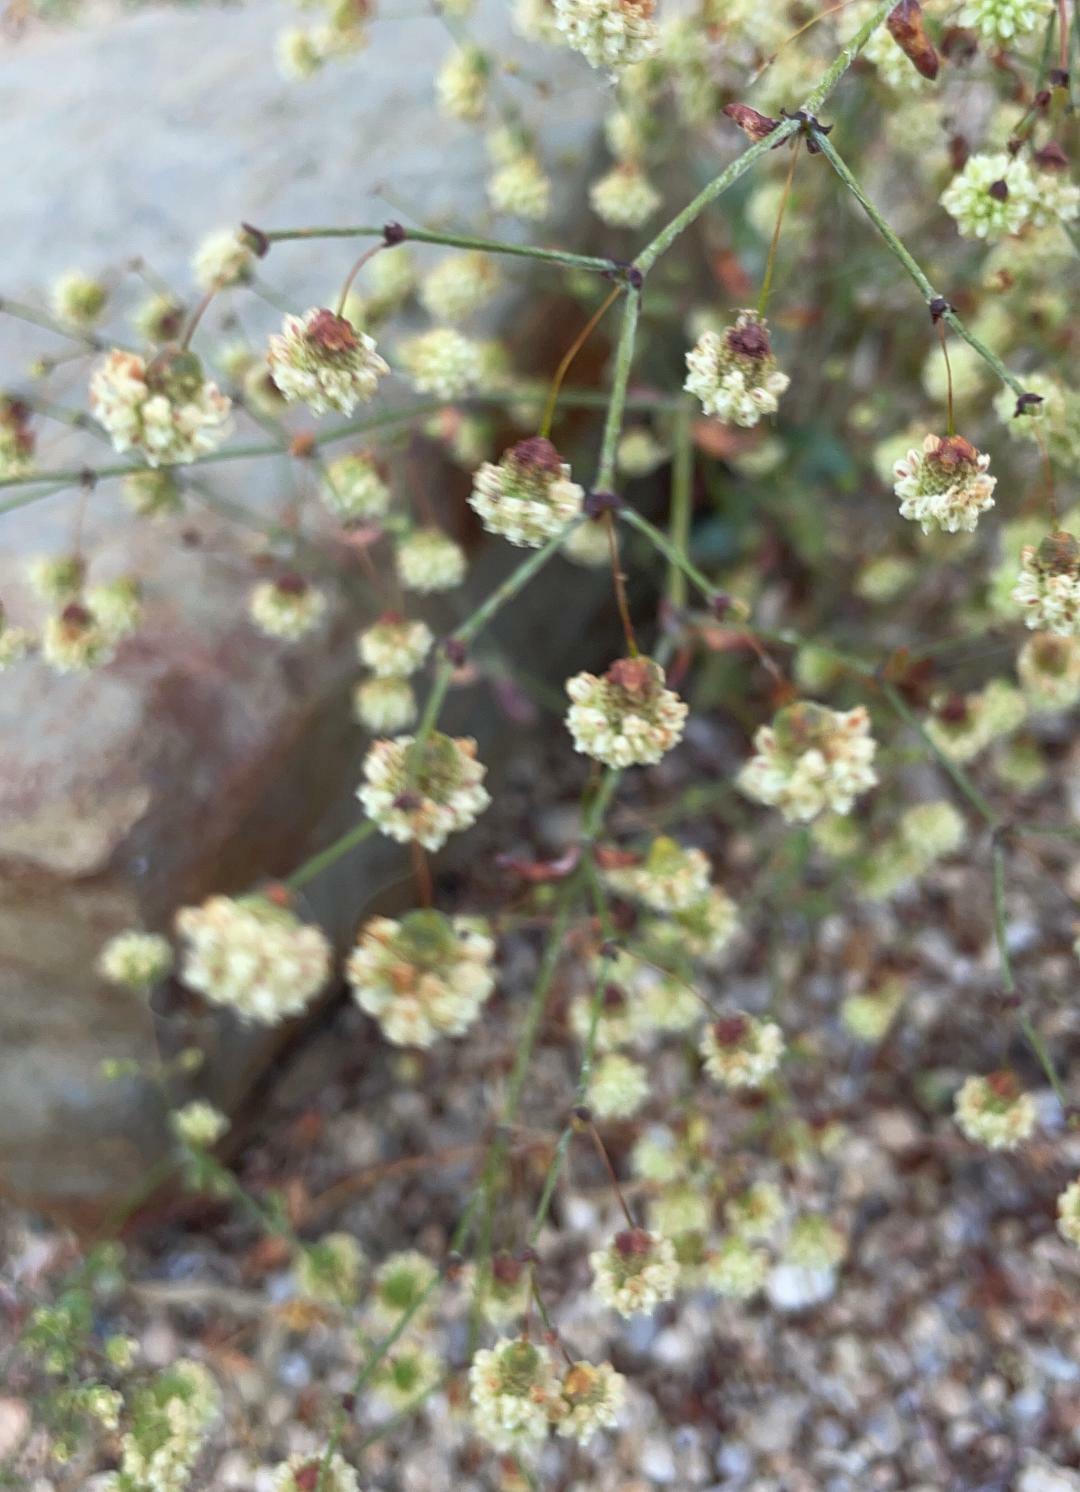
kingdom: Plantae
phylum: Tracheophyta
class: Magnoliopsida
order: Caryophyllales
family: Polygonaceae
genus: Eriogonum
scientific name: Eriogonum maculatum
